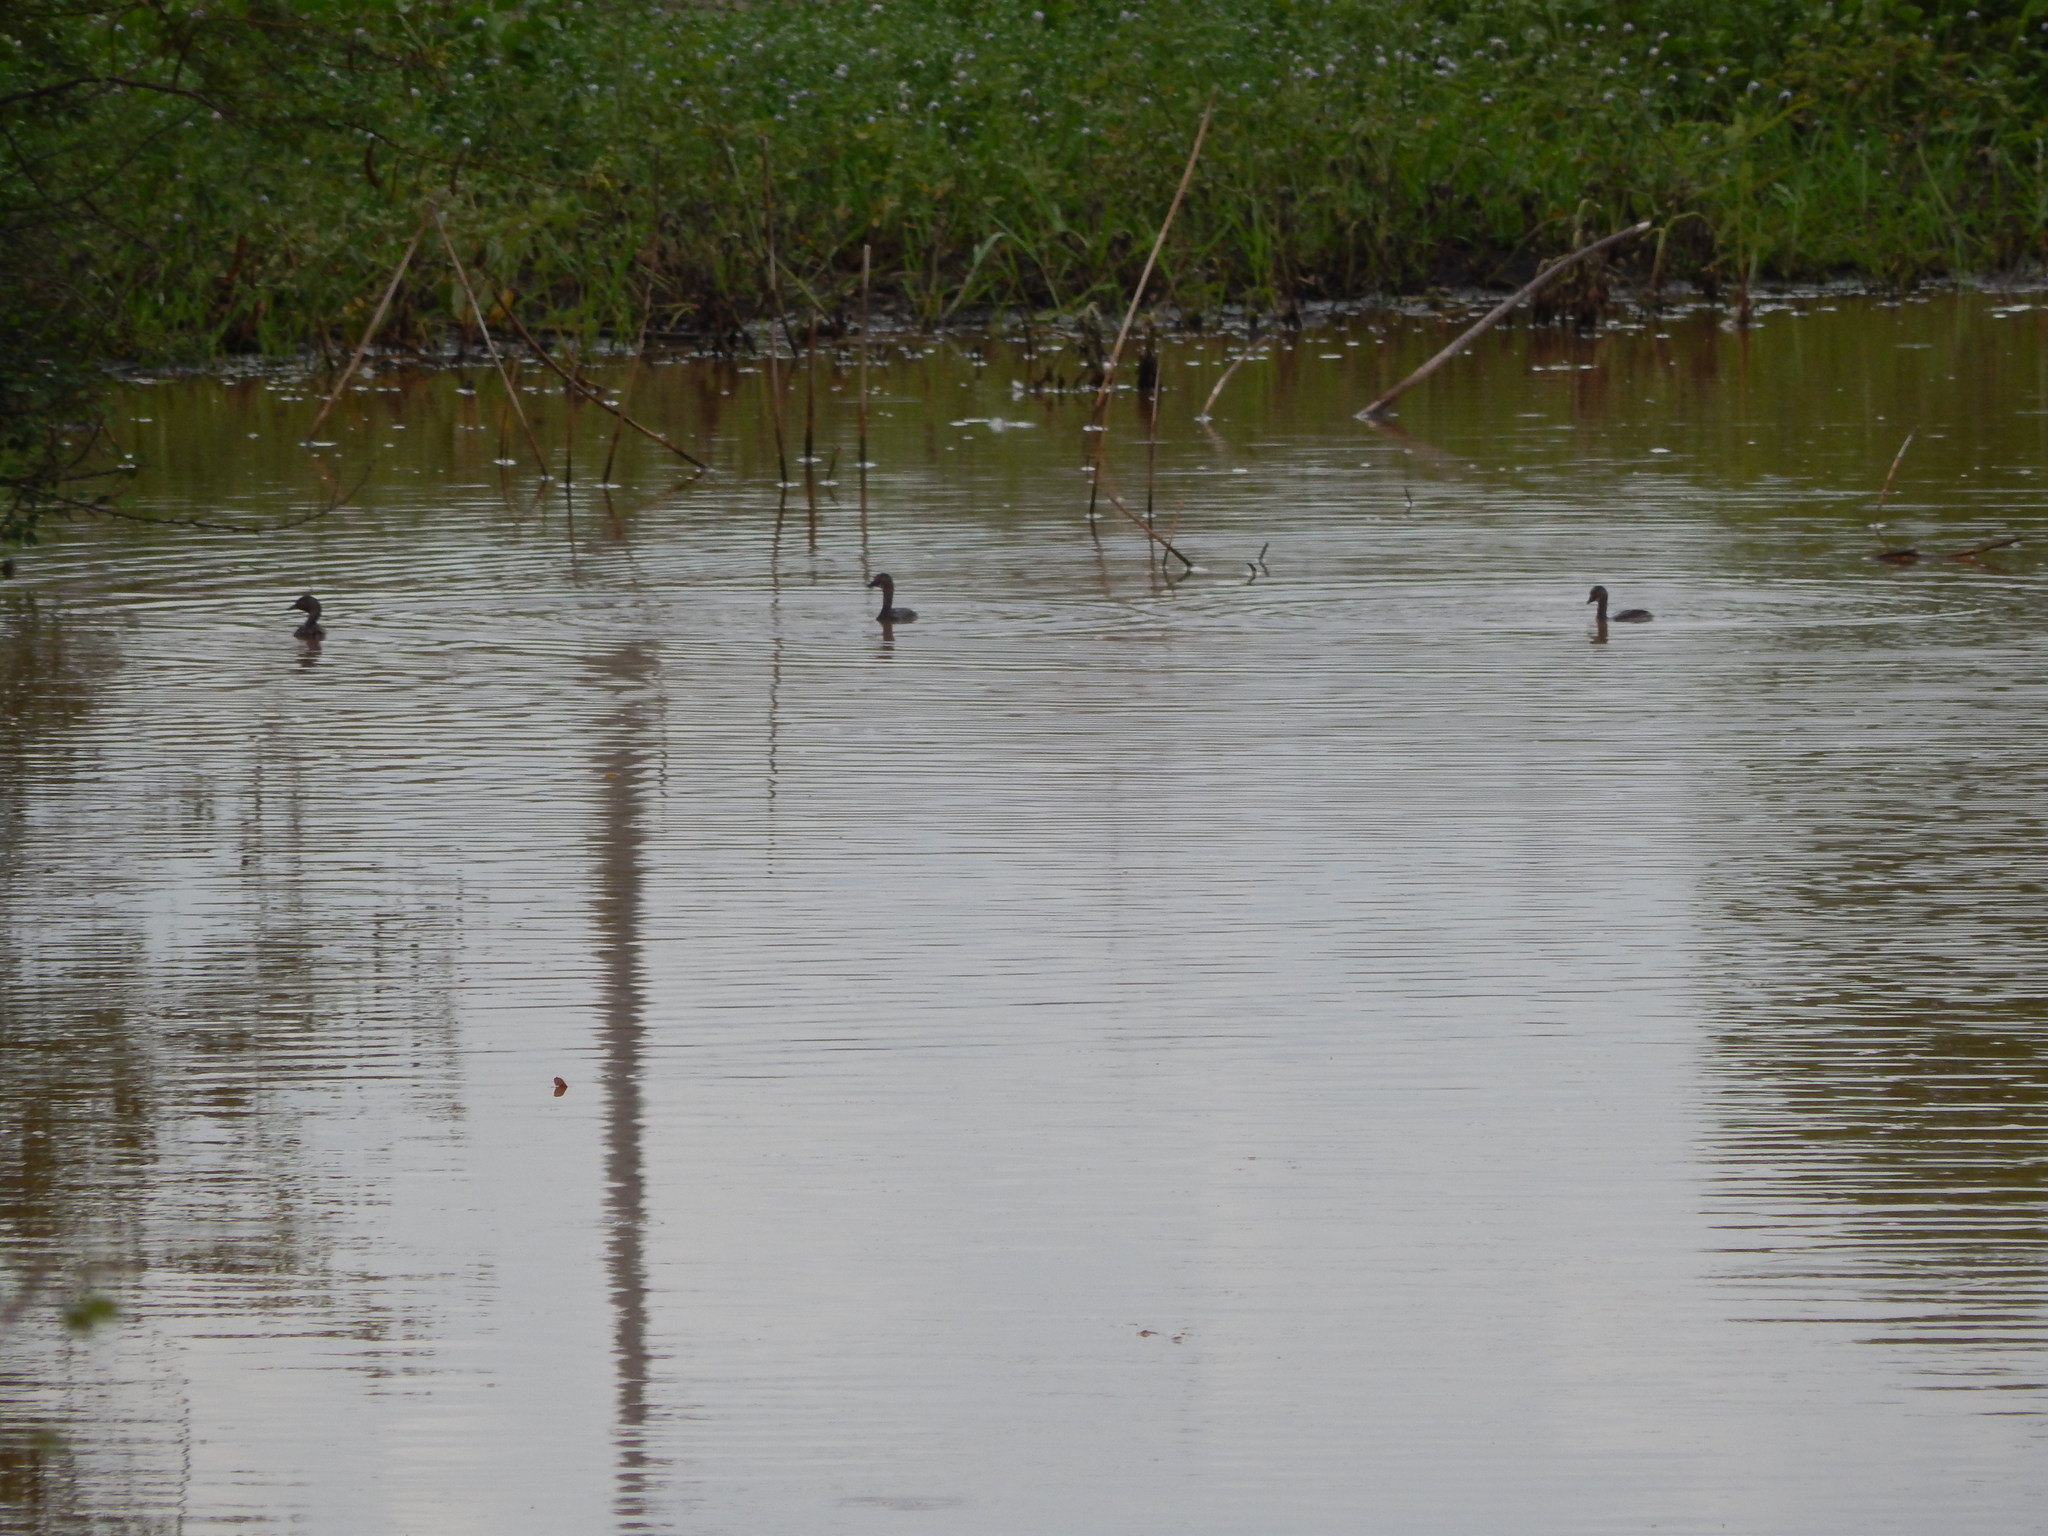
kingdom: Animalia
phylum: Chordata
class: Aves
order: Podicipediformes
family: Podicipedidae
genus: Tachybaptus
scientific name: Tachybaptus dominicus
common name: Least grebe
